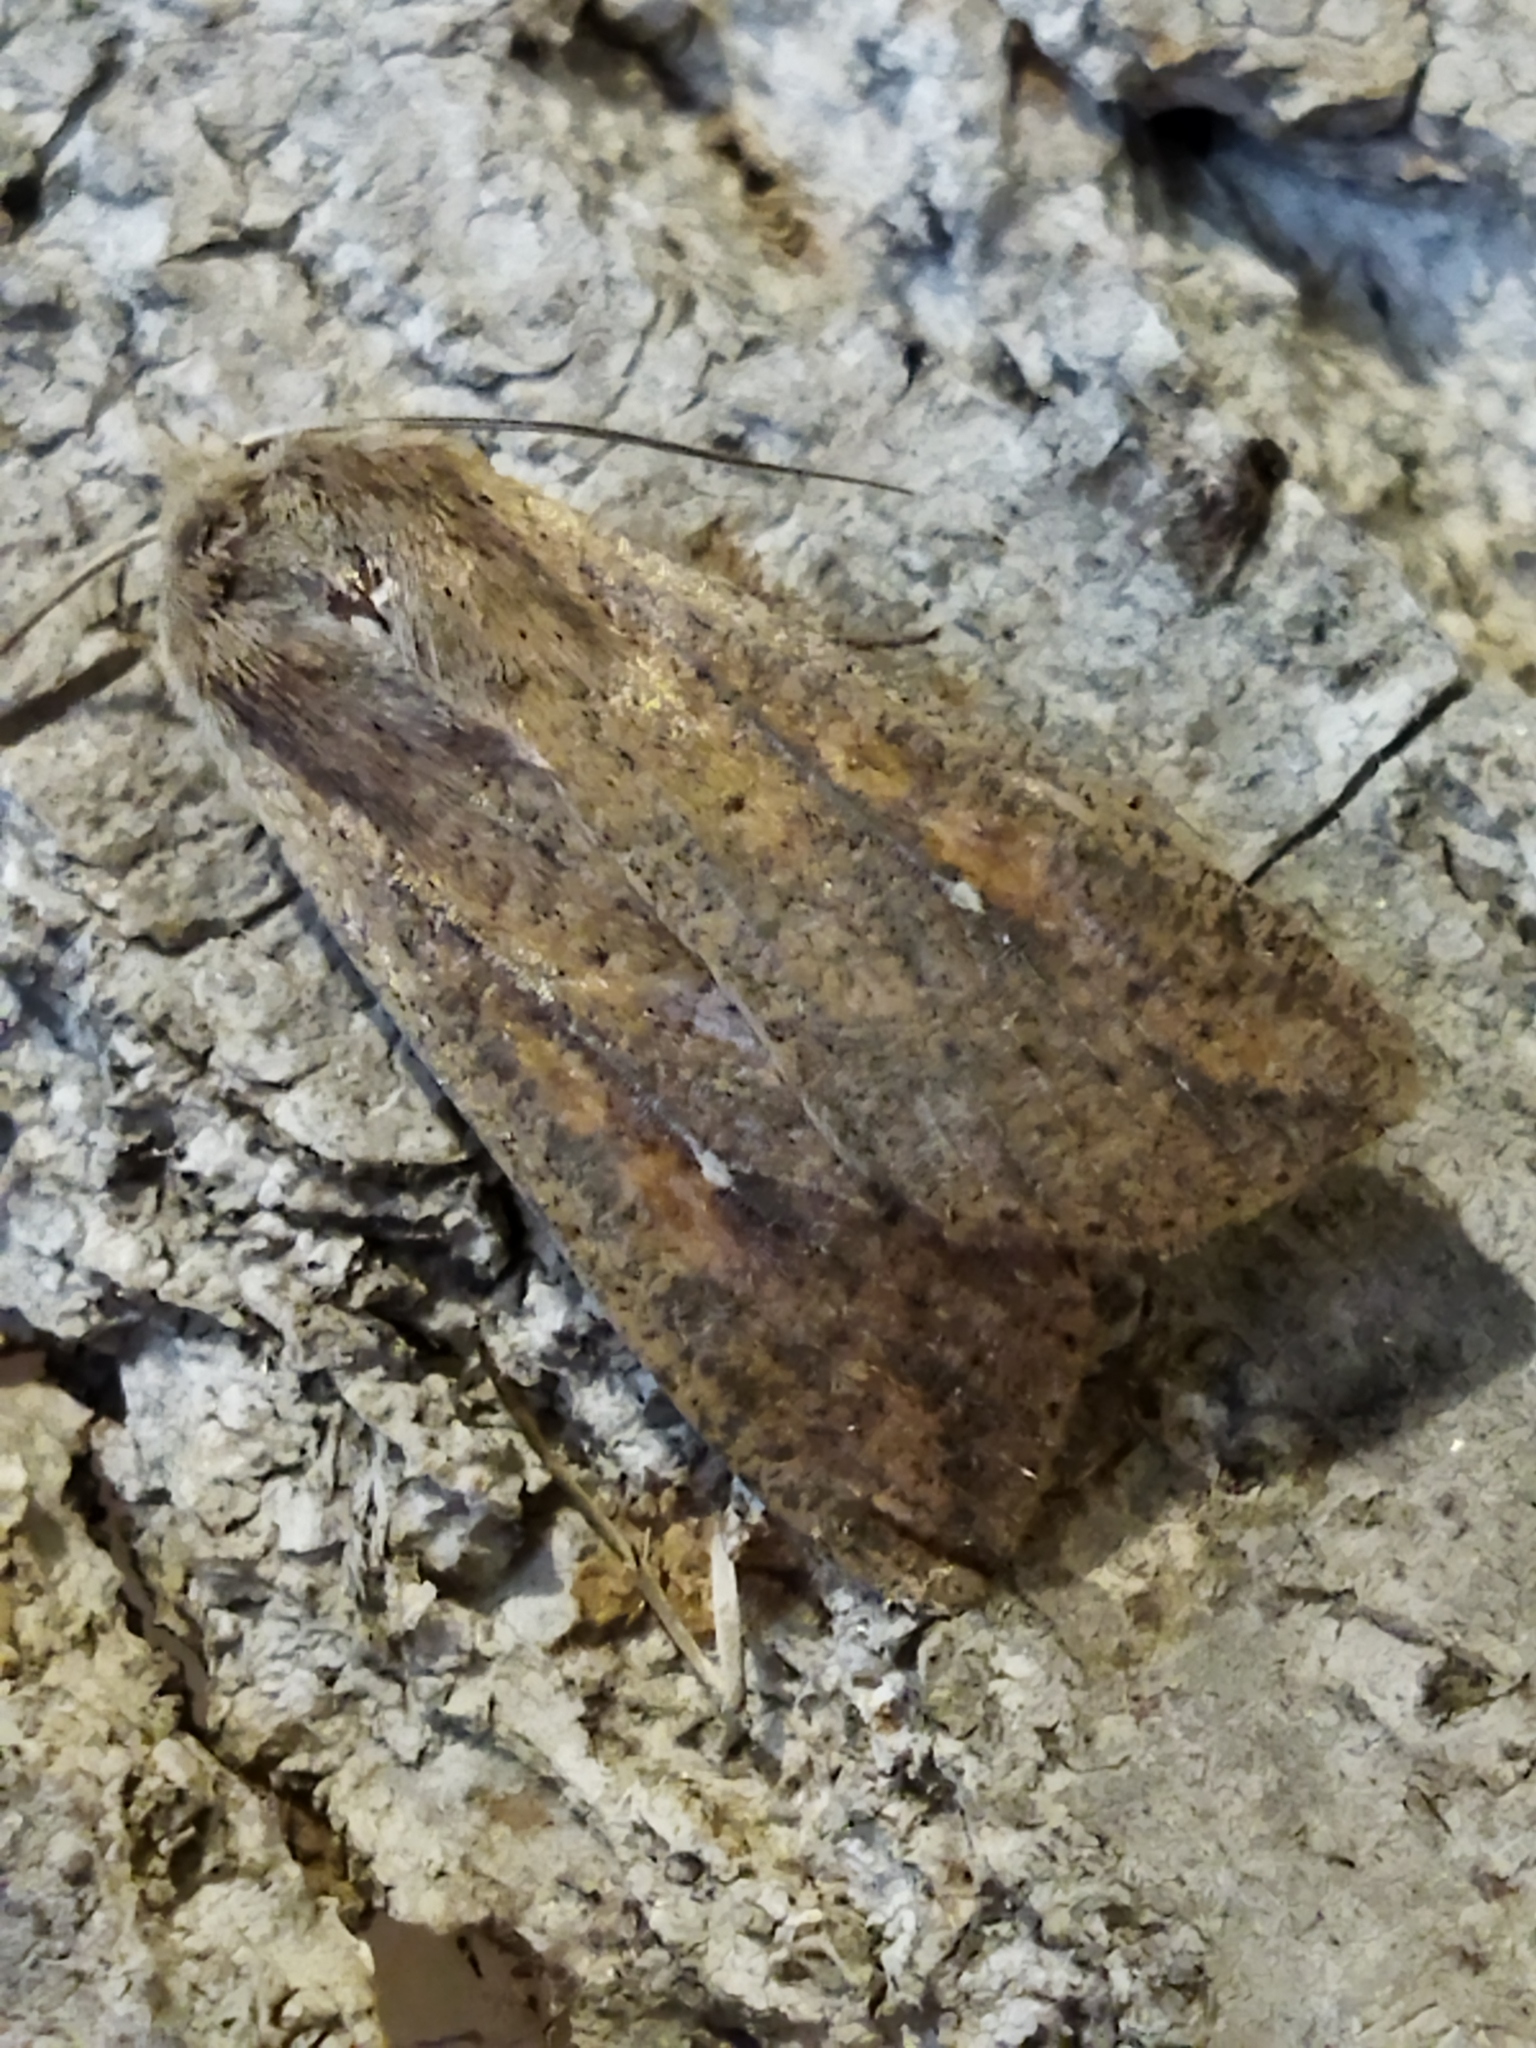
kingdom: Animalia
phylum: Arthropoda
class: Insecta
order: Lepidoptera
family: Noctuidae
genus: Mythimna
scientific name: Mythimna unipuncta
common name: White-speck
